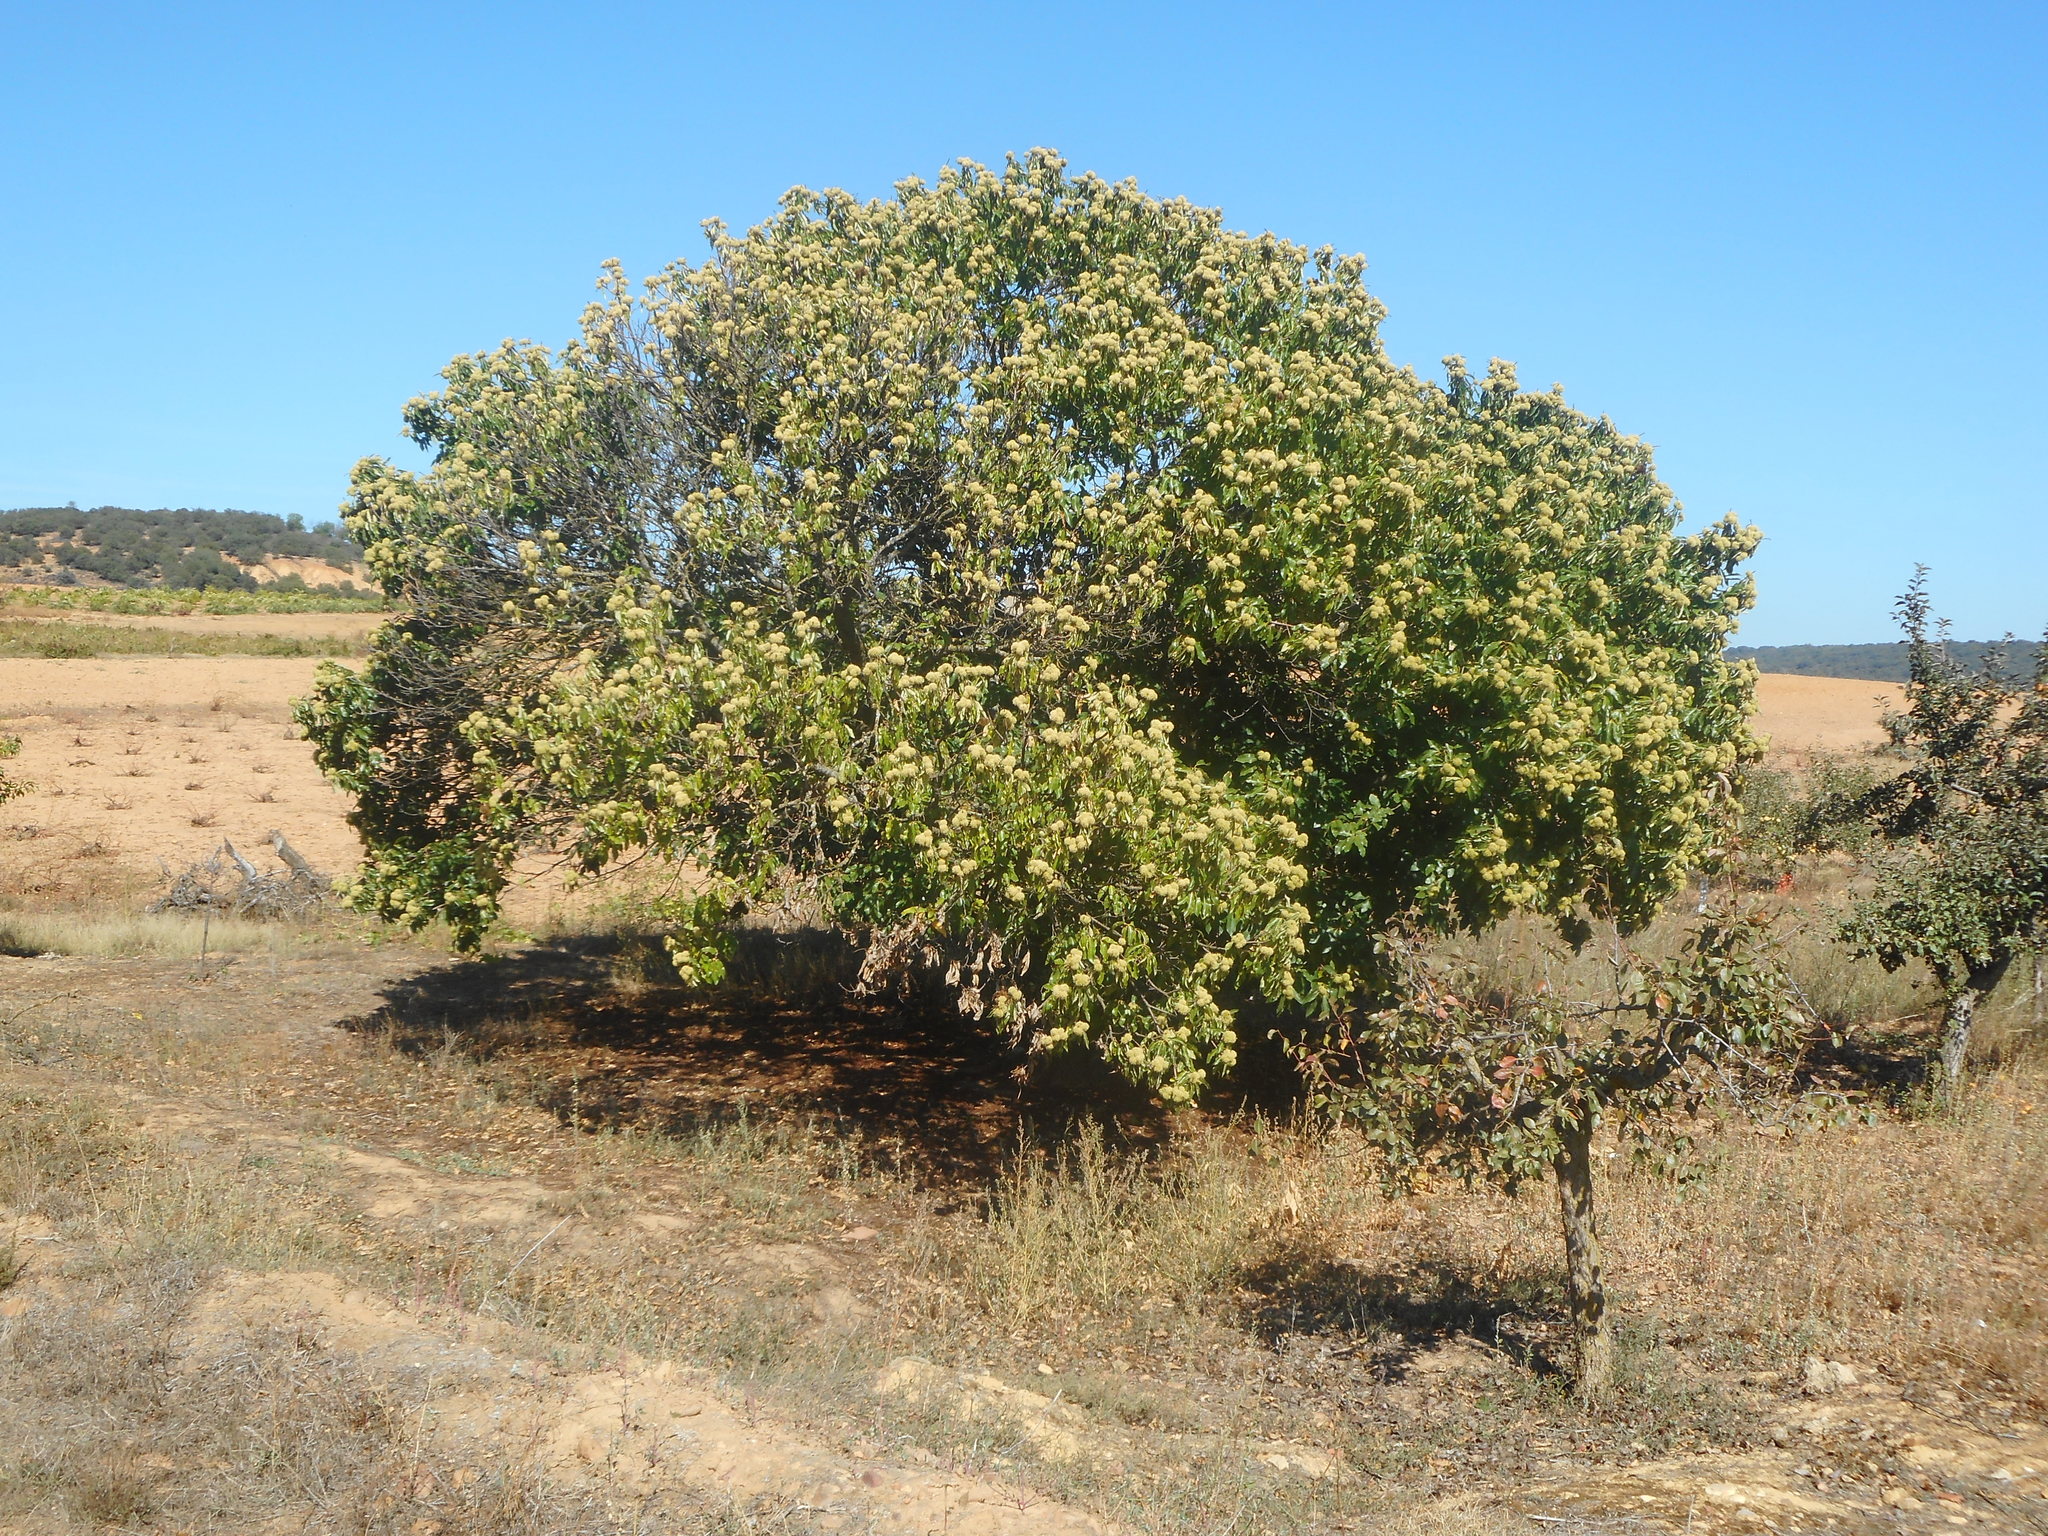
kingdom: Plantae
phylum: Tracheophyta
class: Magnoliopsida
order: Fagales
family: Fagaceae
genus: Castanea
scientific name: Castanea sativa
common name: Sweet chestnut
